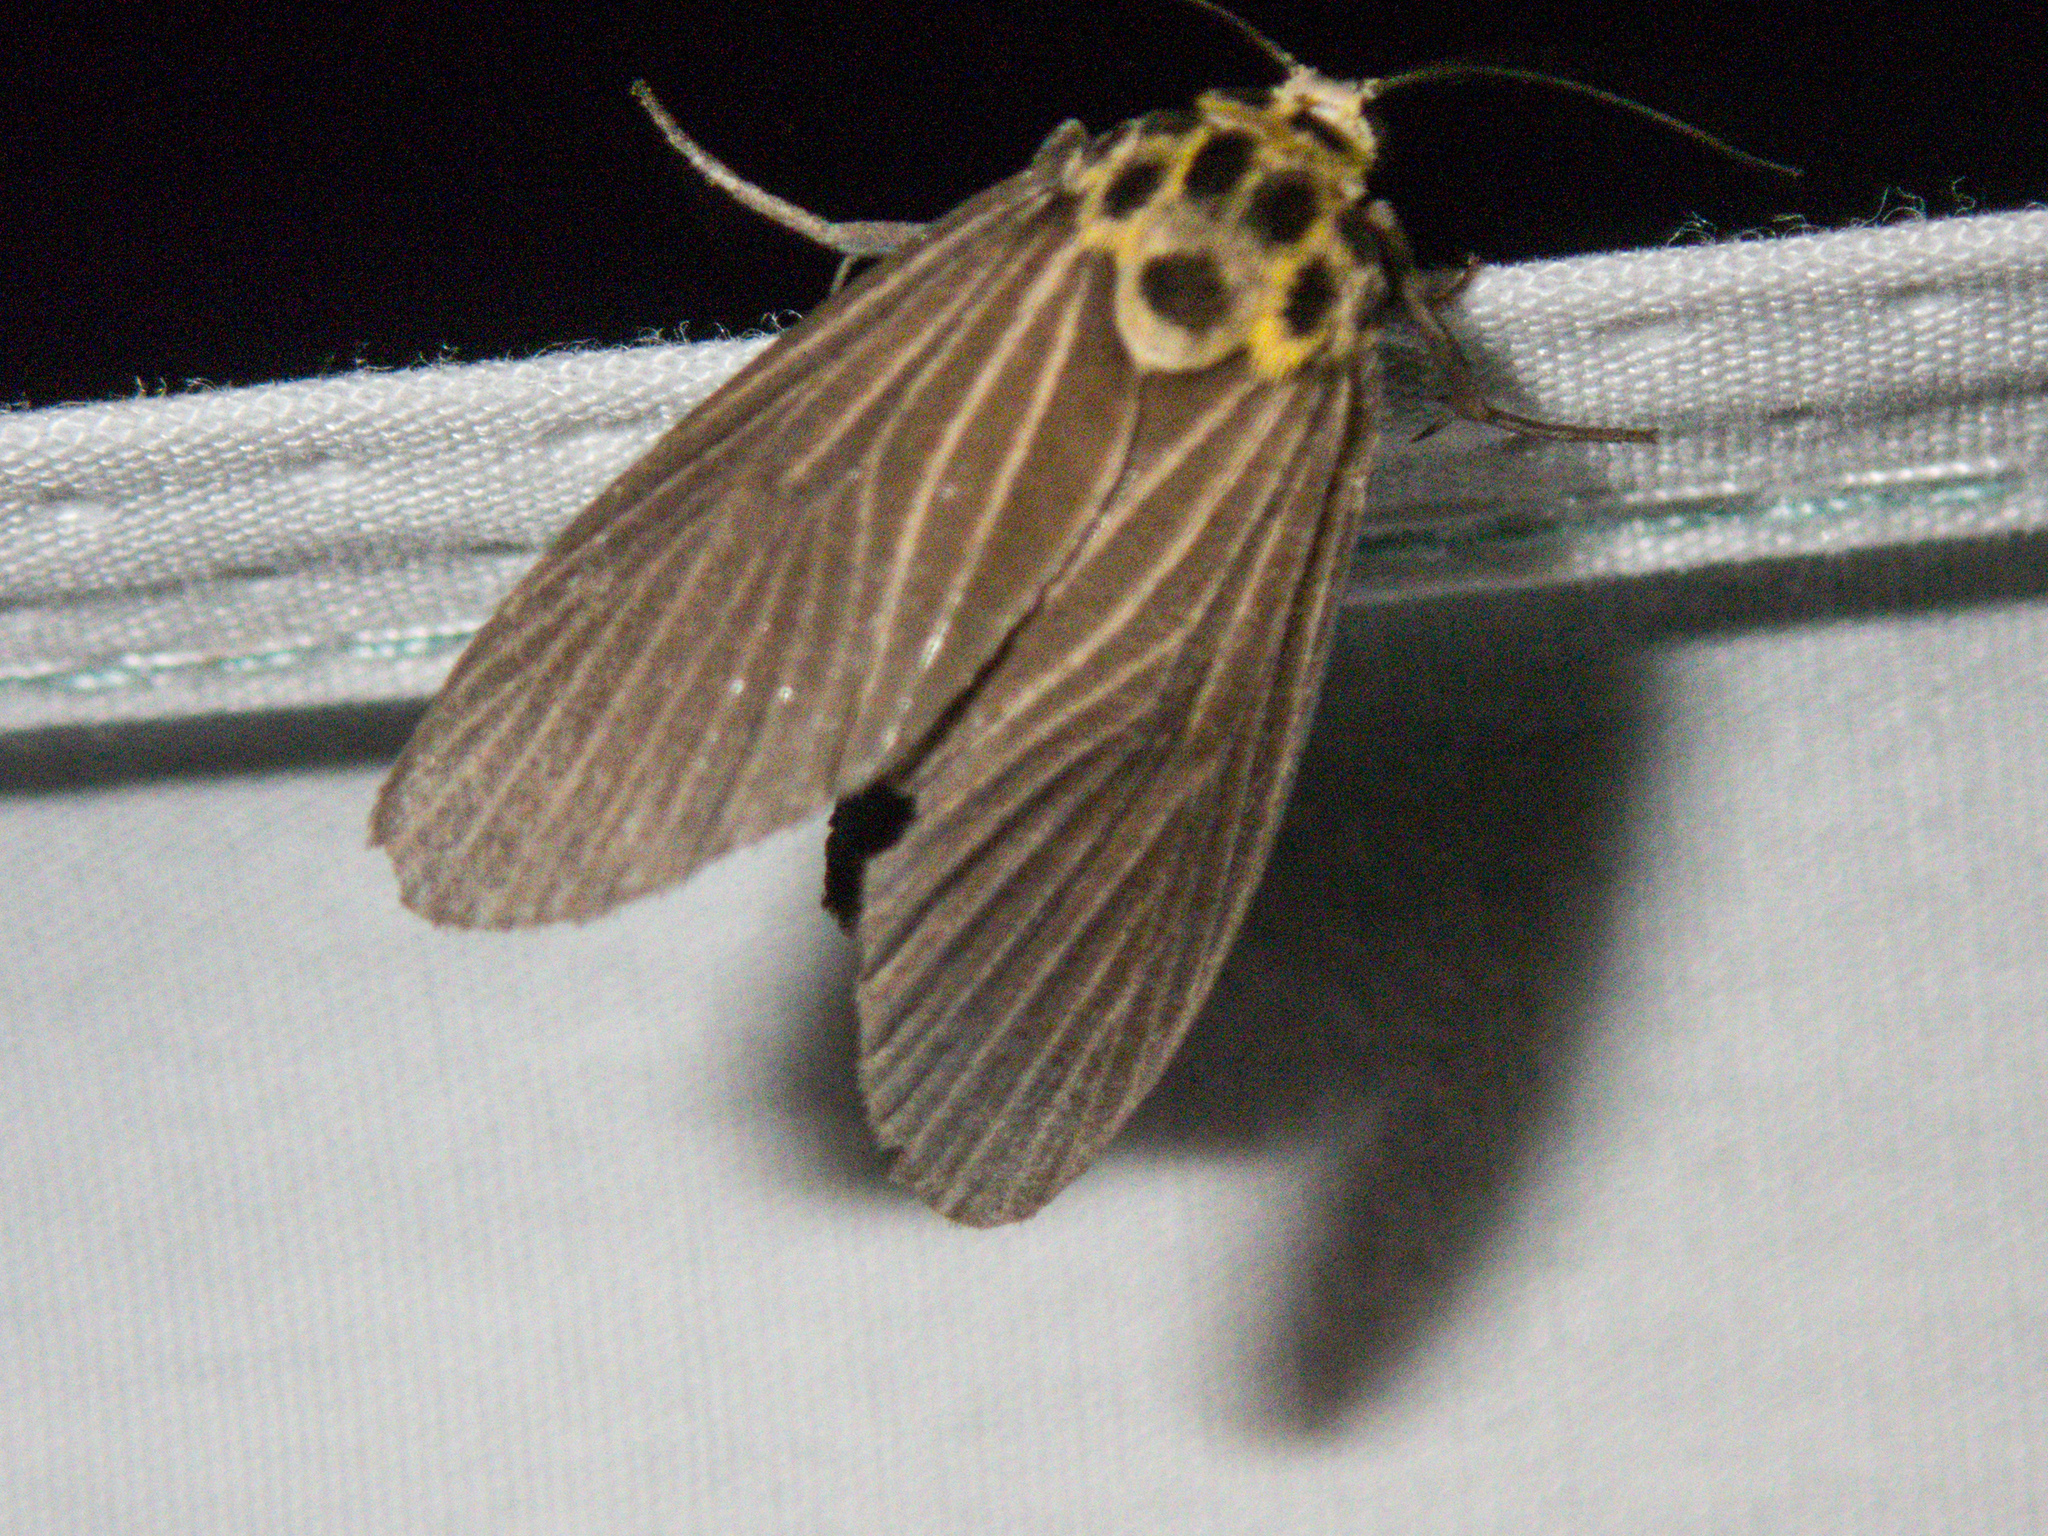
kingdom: Animalia
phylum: Arthropoda
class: Insecta
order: Lepidoptera
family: Erebidae
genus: Baroa
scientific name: Baroa siamica
